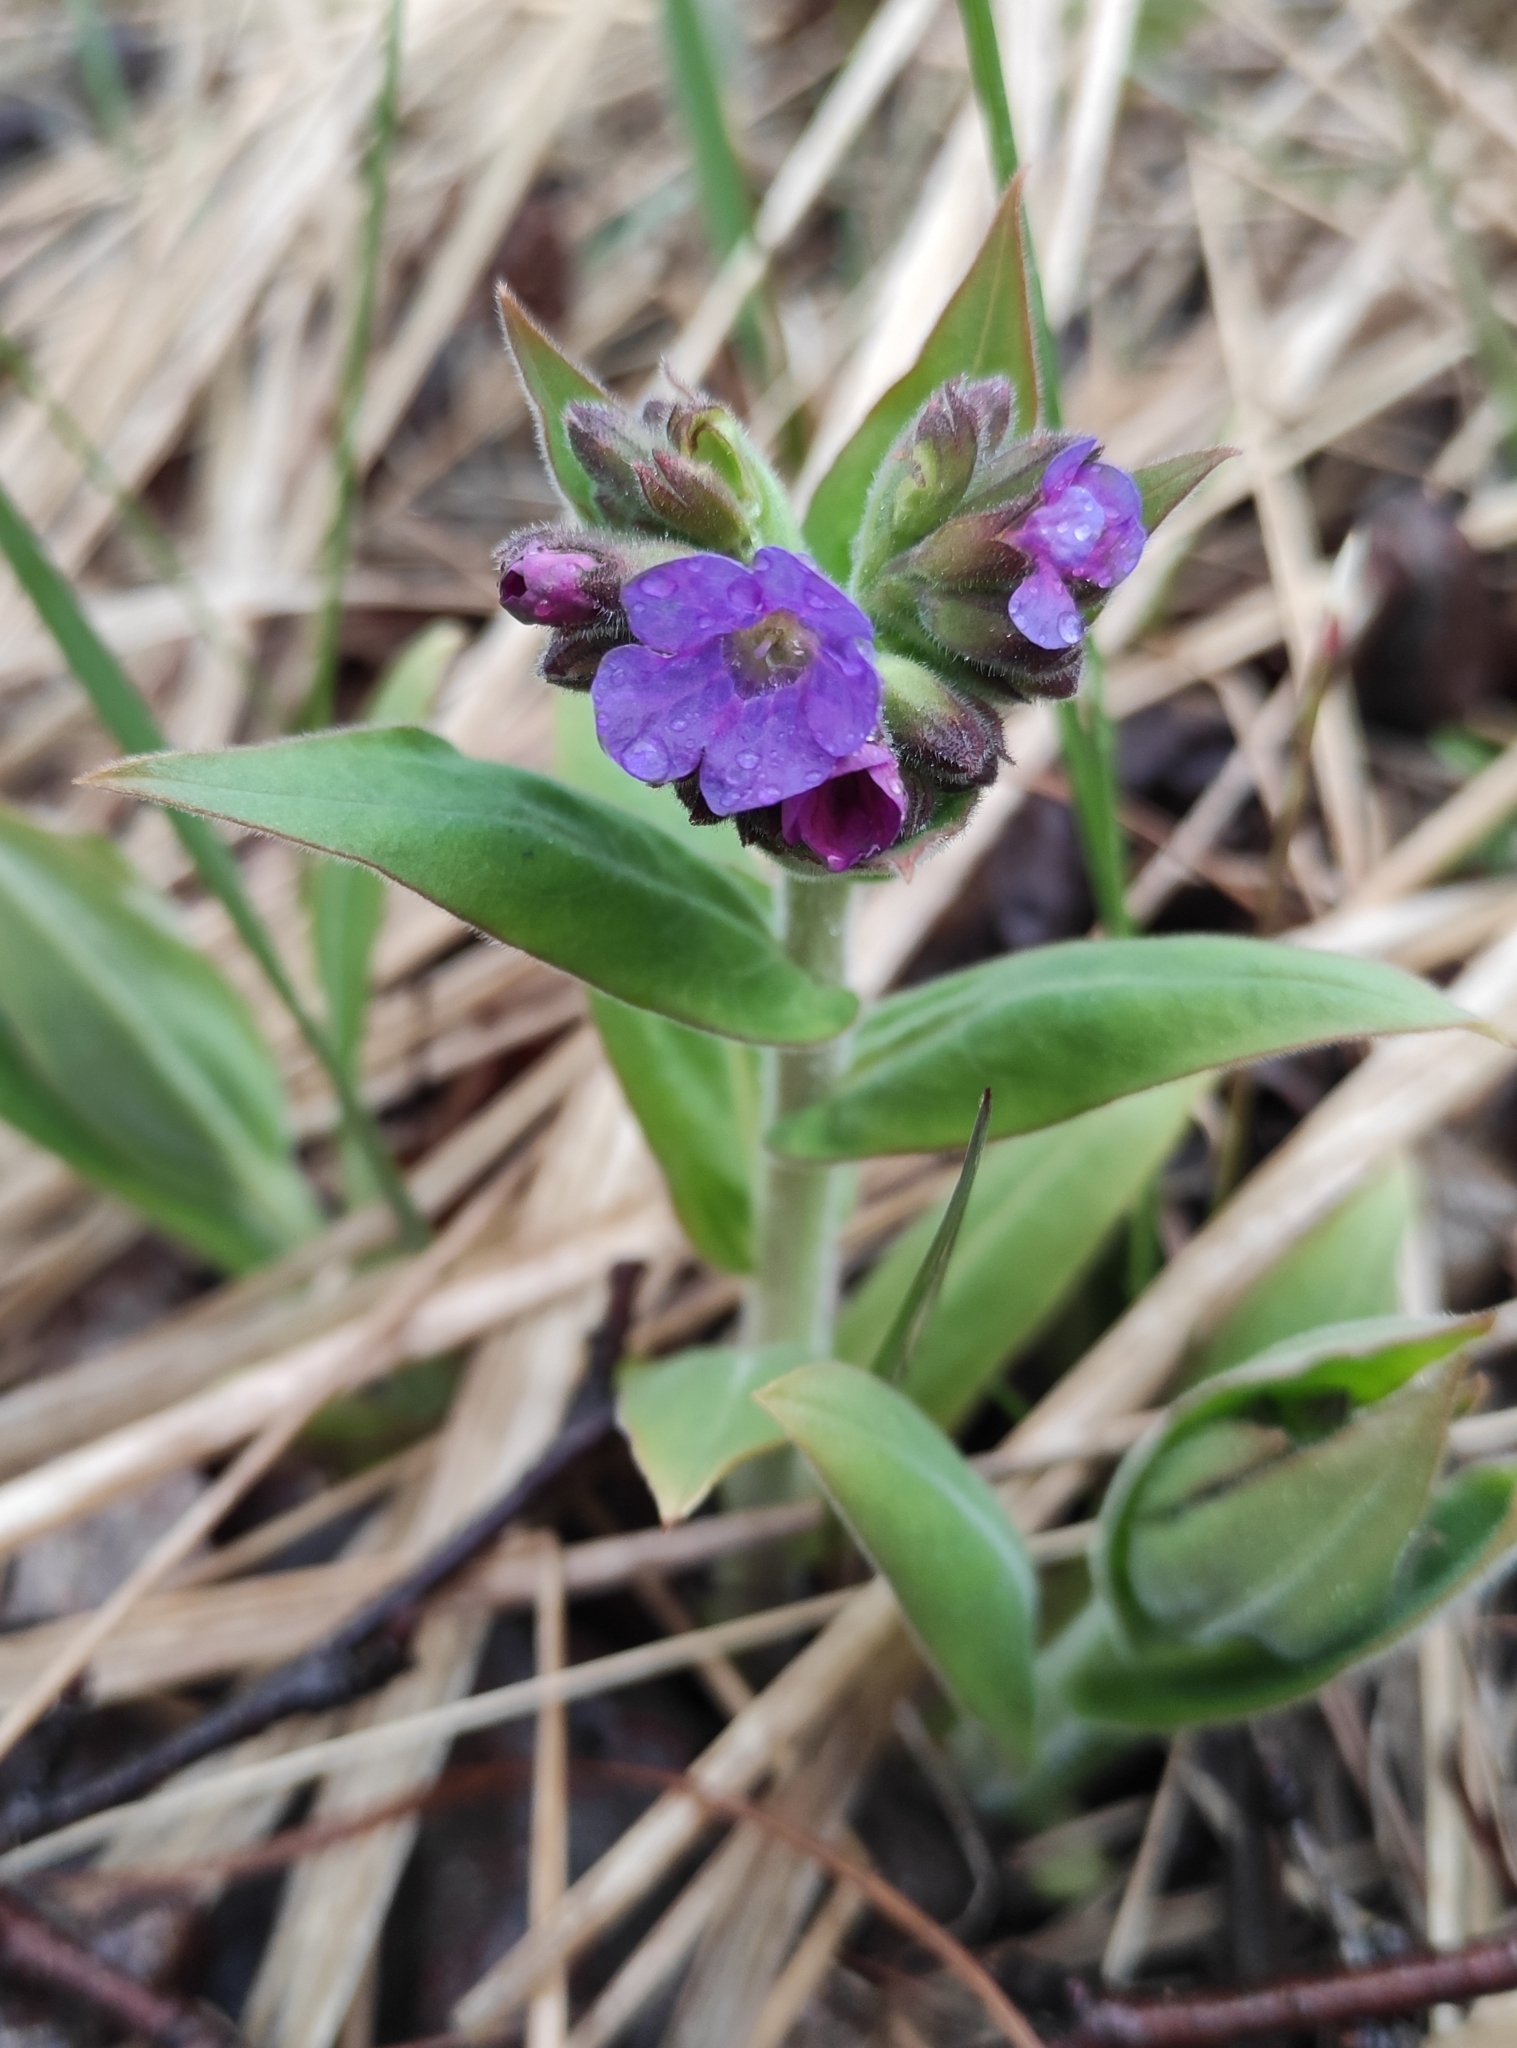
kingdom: Plantae
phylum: Tracheophyta
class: Magnoliopsida
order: Boraginales
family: Boraginaceae
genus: Pulmonaria
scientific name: Pulmonaria mollis
